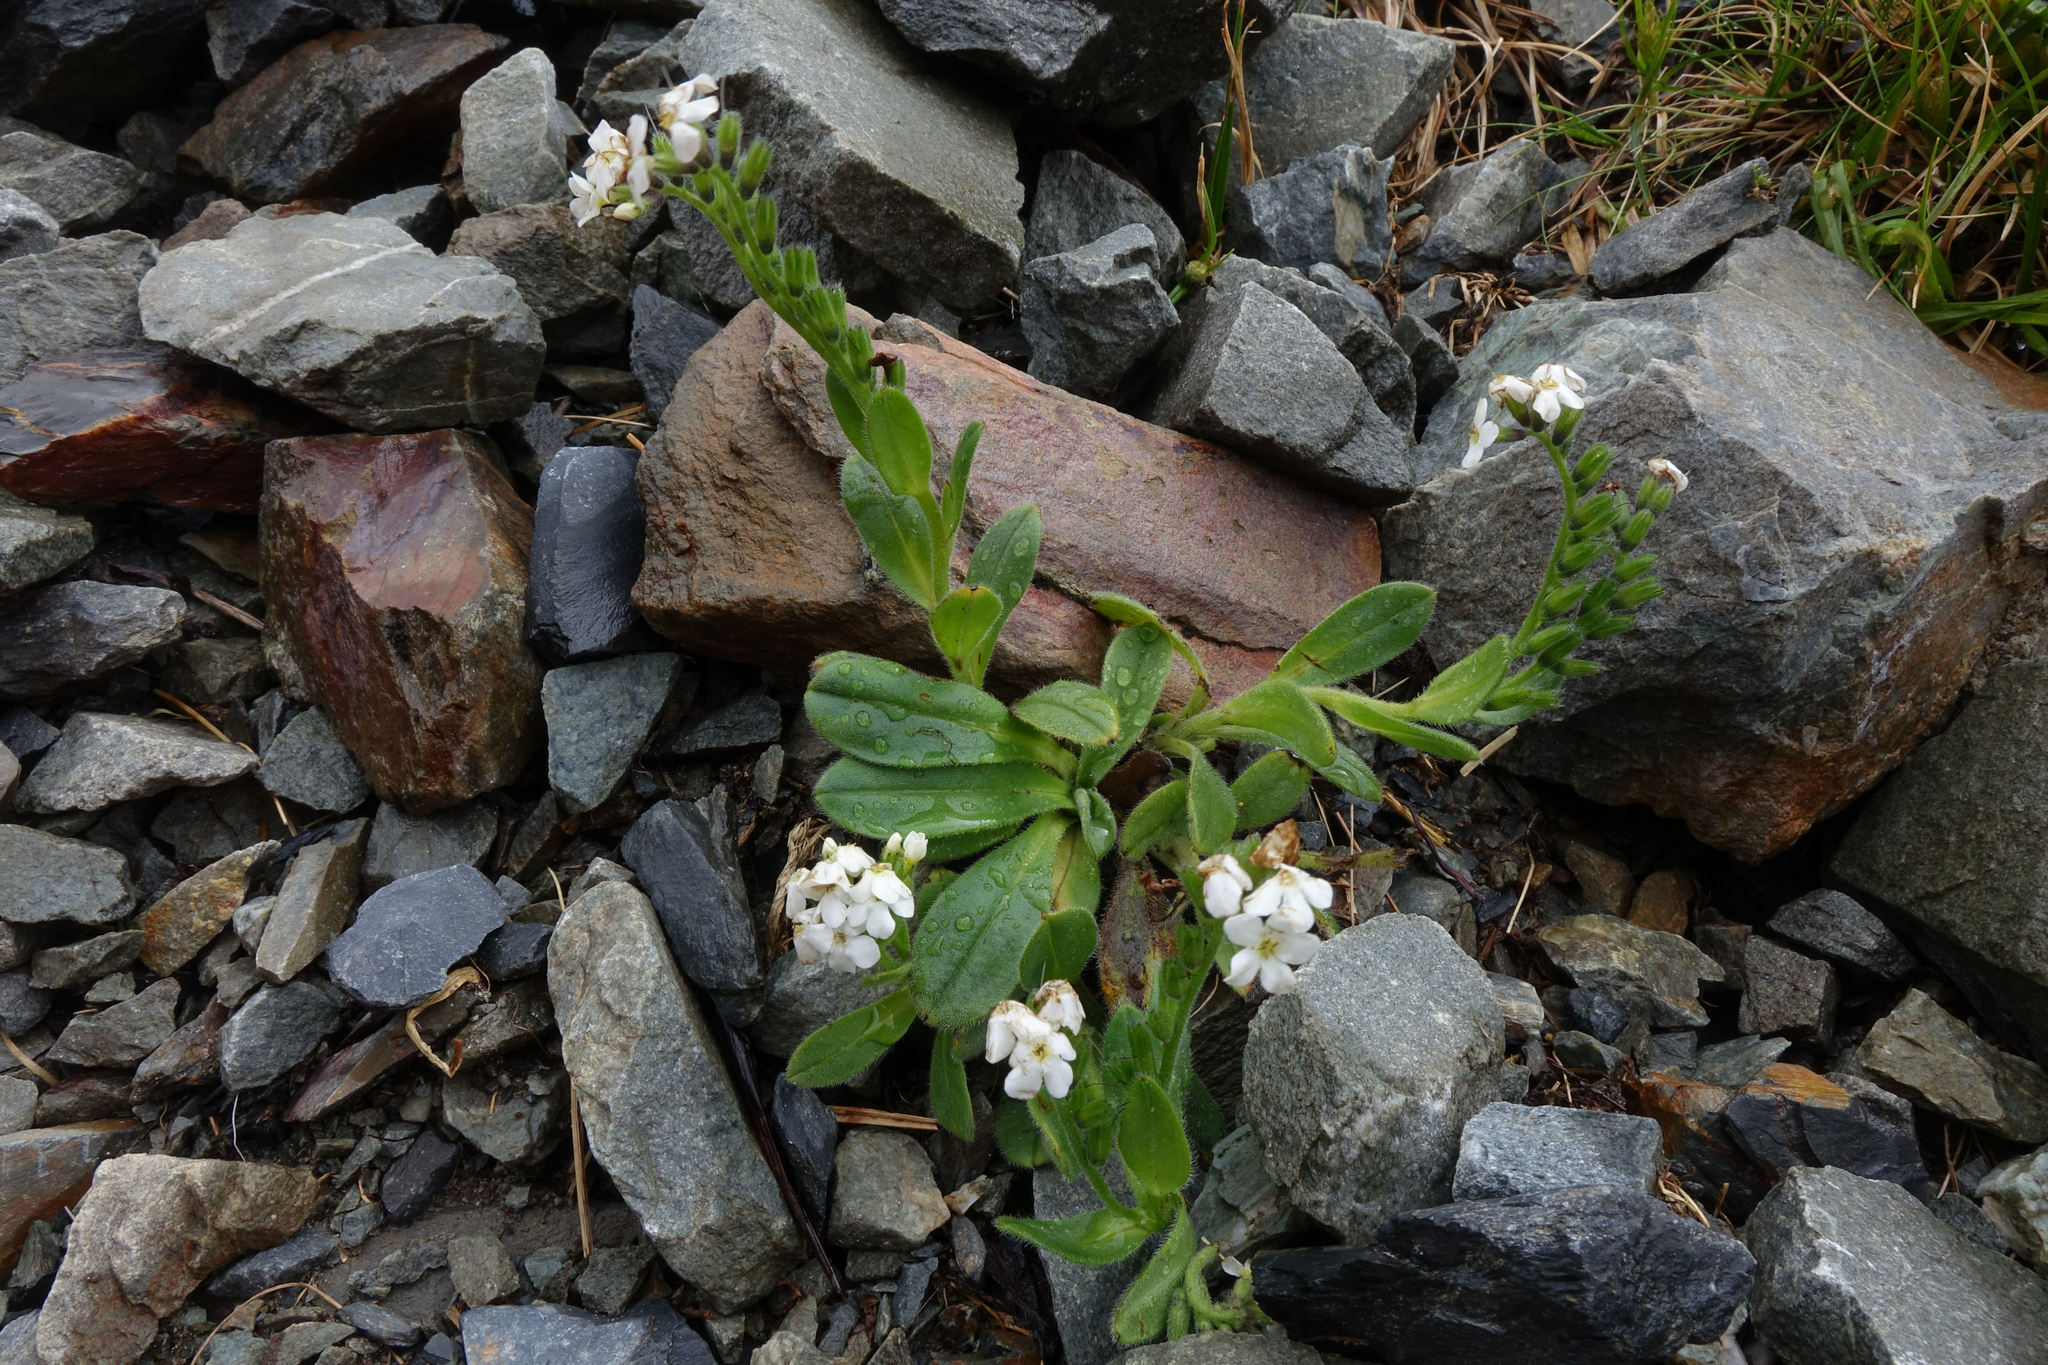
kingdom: Plantae
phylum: Tracheophyta
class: Magnoliopsida
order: Boraginales
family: Boraginaceae
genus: Myosotis
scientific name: Myosotis suavis
